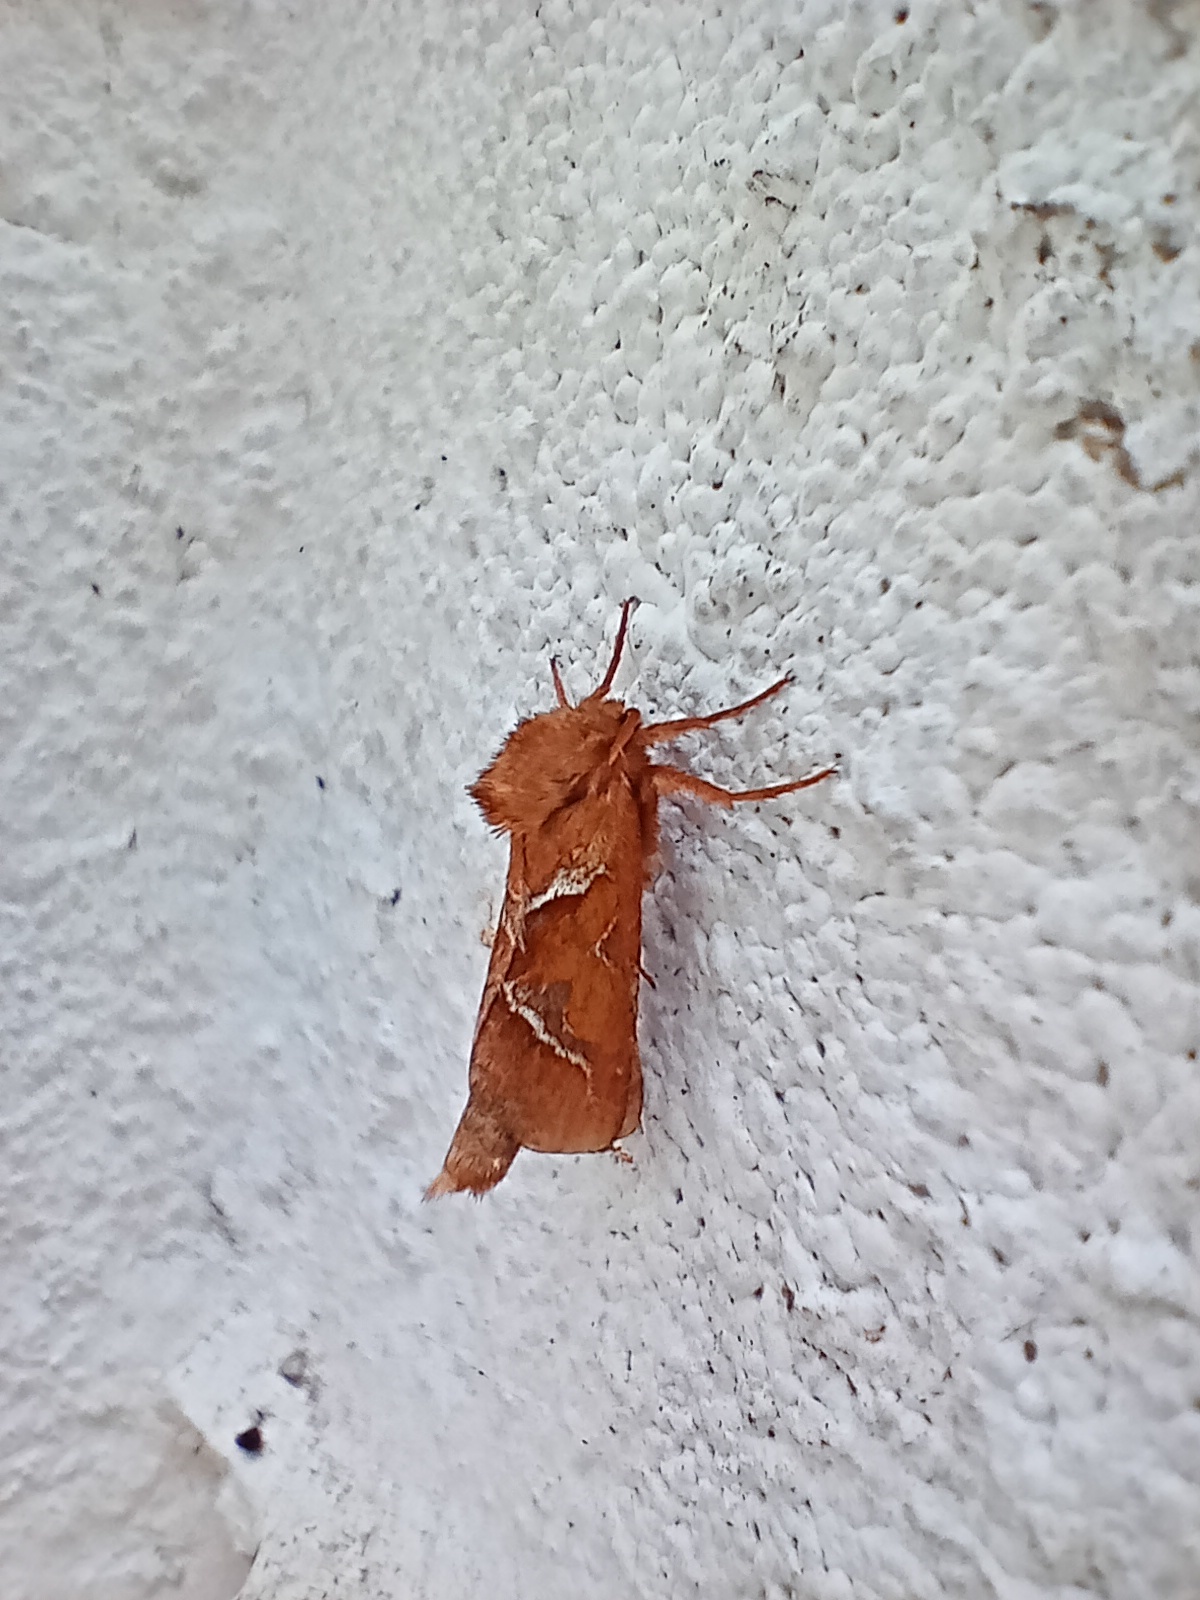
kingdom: Animalia
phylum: Arthropoda
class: Insecta
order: Lepidoptera
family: Hepialidae
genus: Triodia
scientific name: Triodia sylvina
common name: Orange swift
